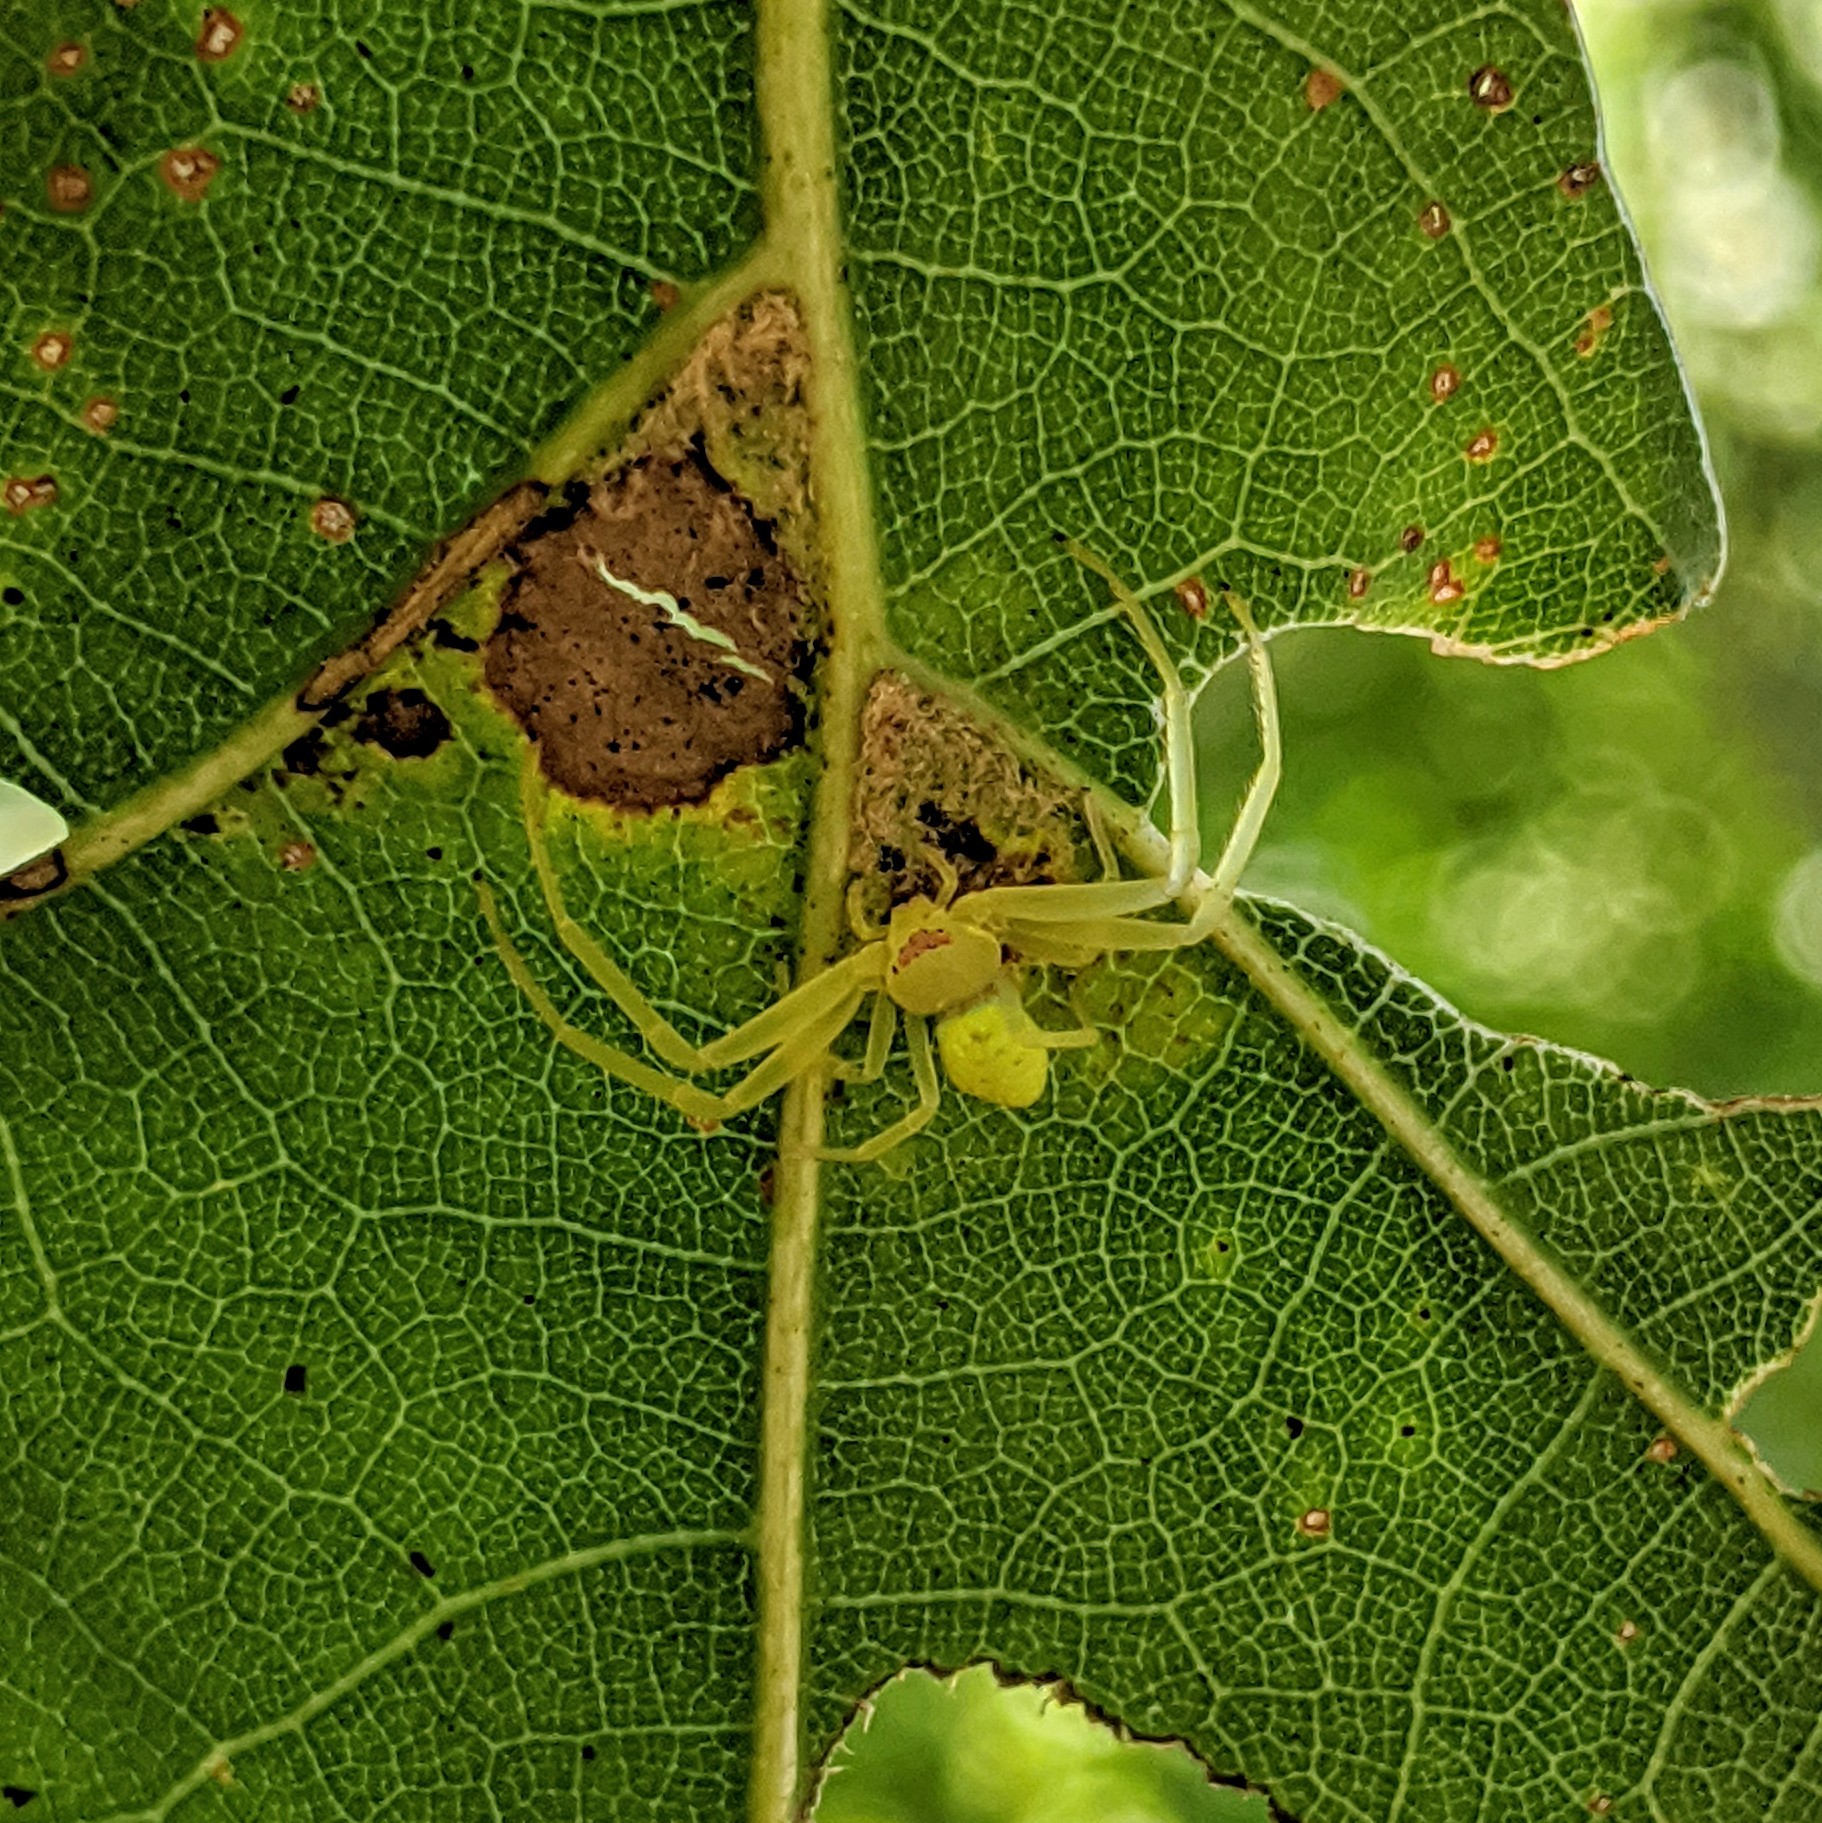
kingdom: Animalia
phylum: Arthropoda
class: Arachnida
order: Araneae
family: Thomisidae
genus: Misumessus
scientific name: Misumessus oblongus
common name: American green crab spider
